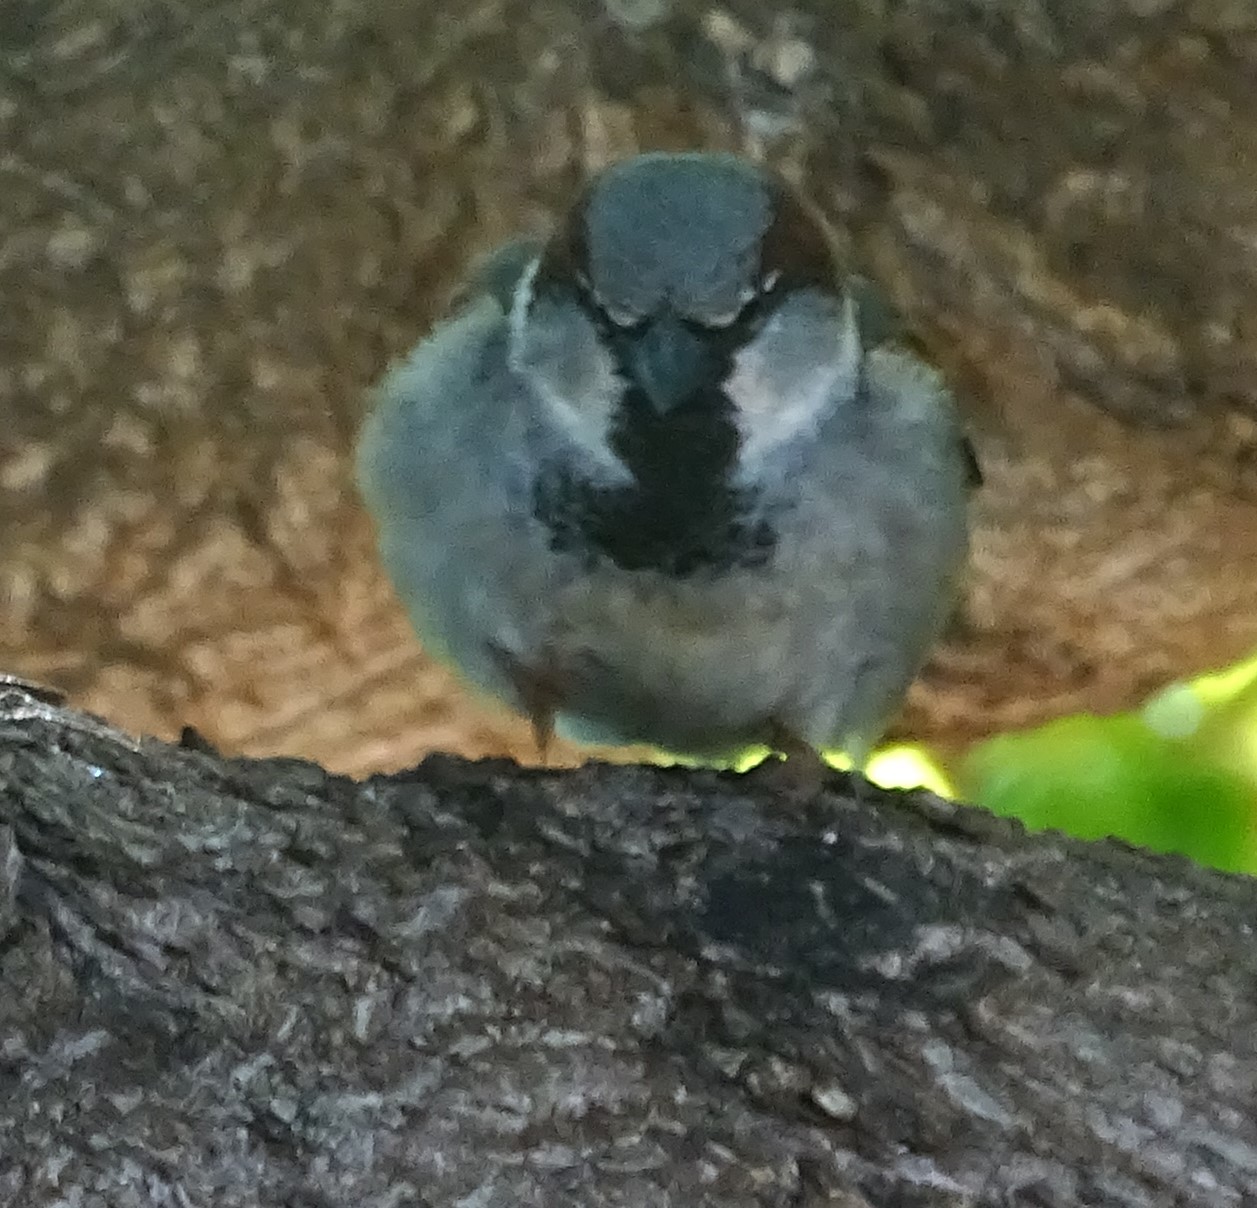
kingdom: Animalia
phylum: Chordata
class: Aves
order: Passeriformes
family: Passeridae
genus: Passer
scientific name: Passer domesticus
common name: House sparrow
